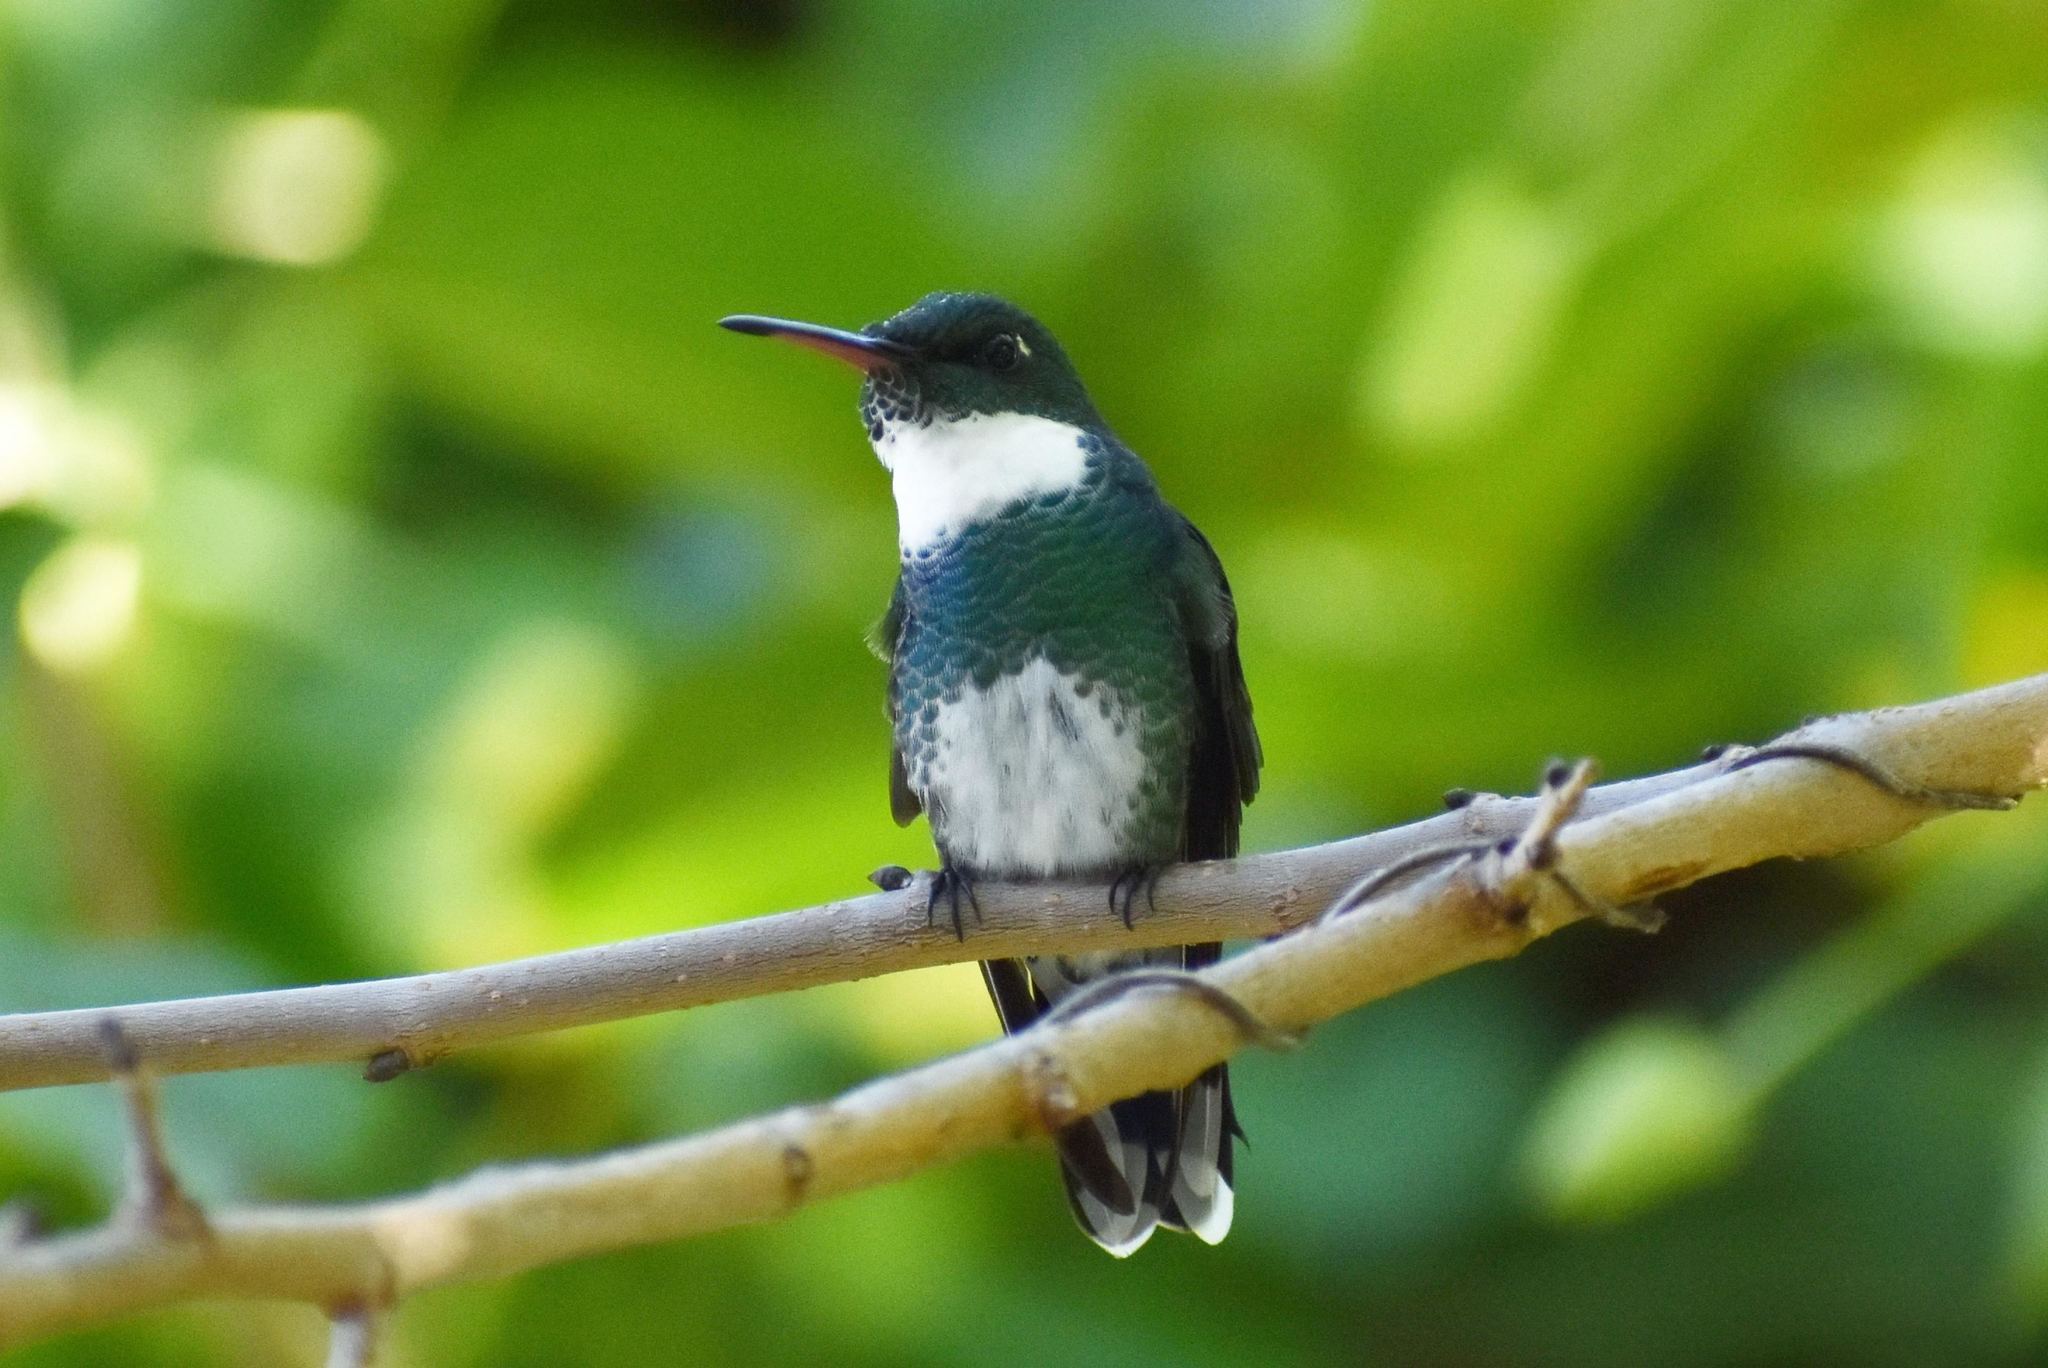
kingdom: Animalia
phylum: Chordata
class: Aves
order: Apodiformes
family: Trochilidae
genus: Leucochloris
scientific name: Leucochloris albicollis
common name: White-throated hummingbird
